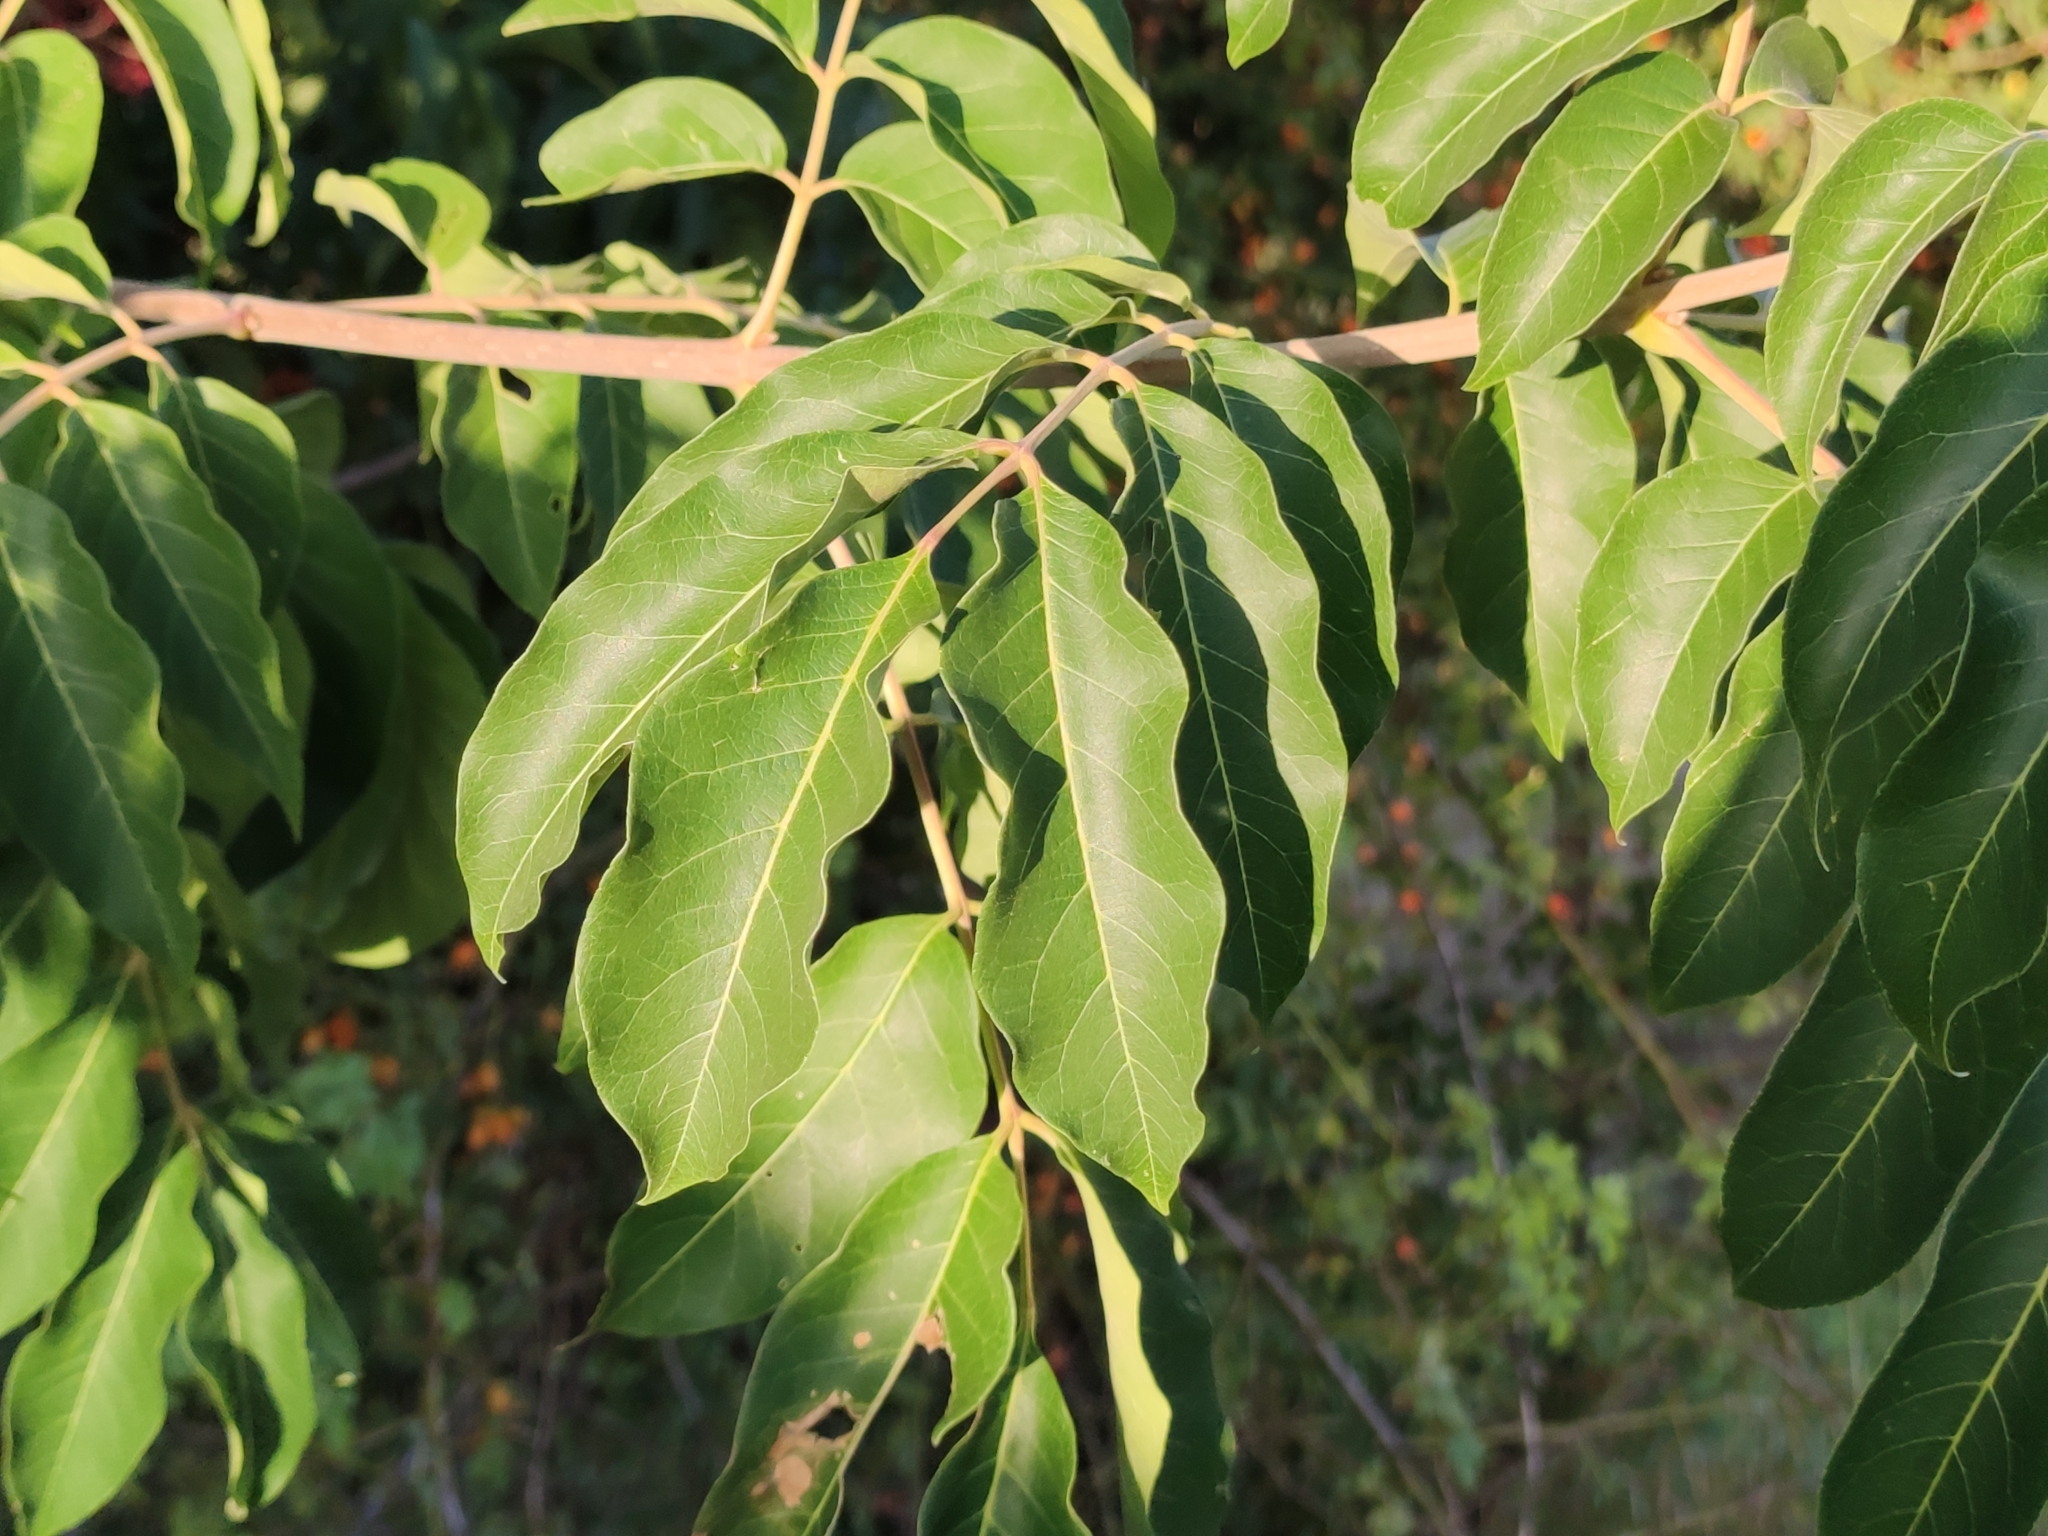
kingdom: Plantae
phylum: Tracheophyta
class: Magnoliopsida
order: Sapindales
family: Rutaceae
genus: Tetradium
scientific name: Tetradium daniellii
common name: Bee-bee tree
